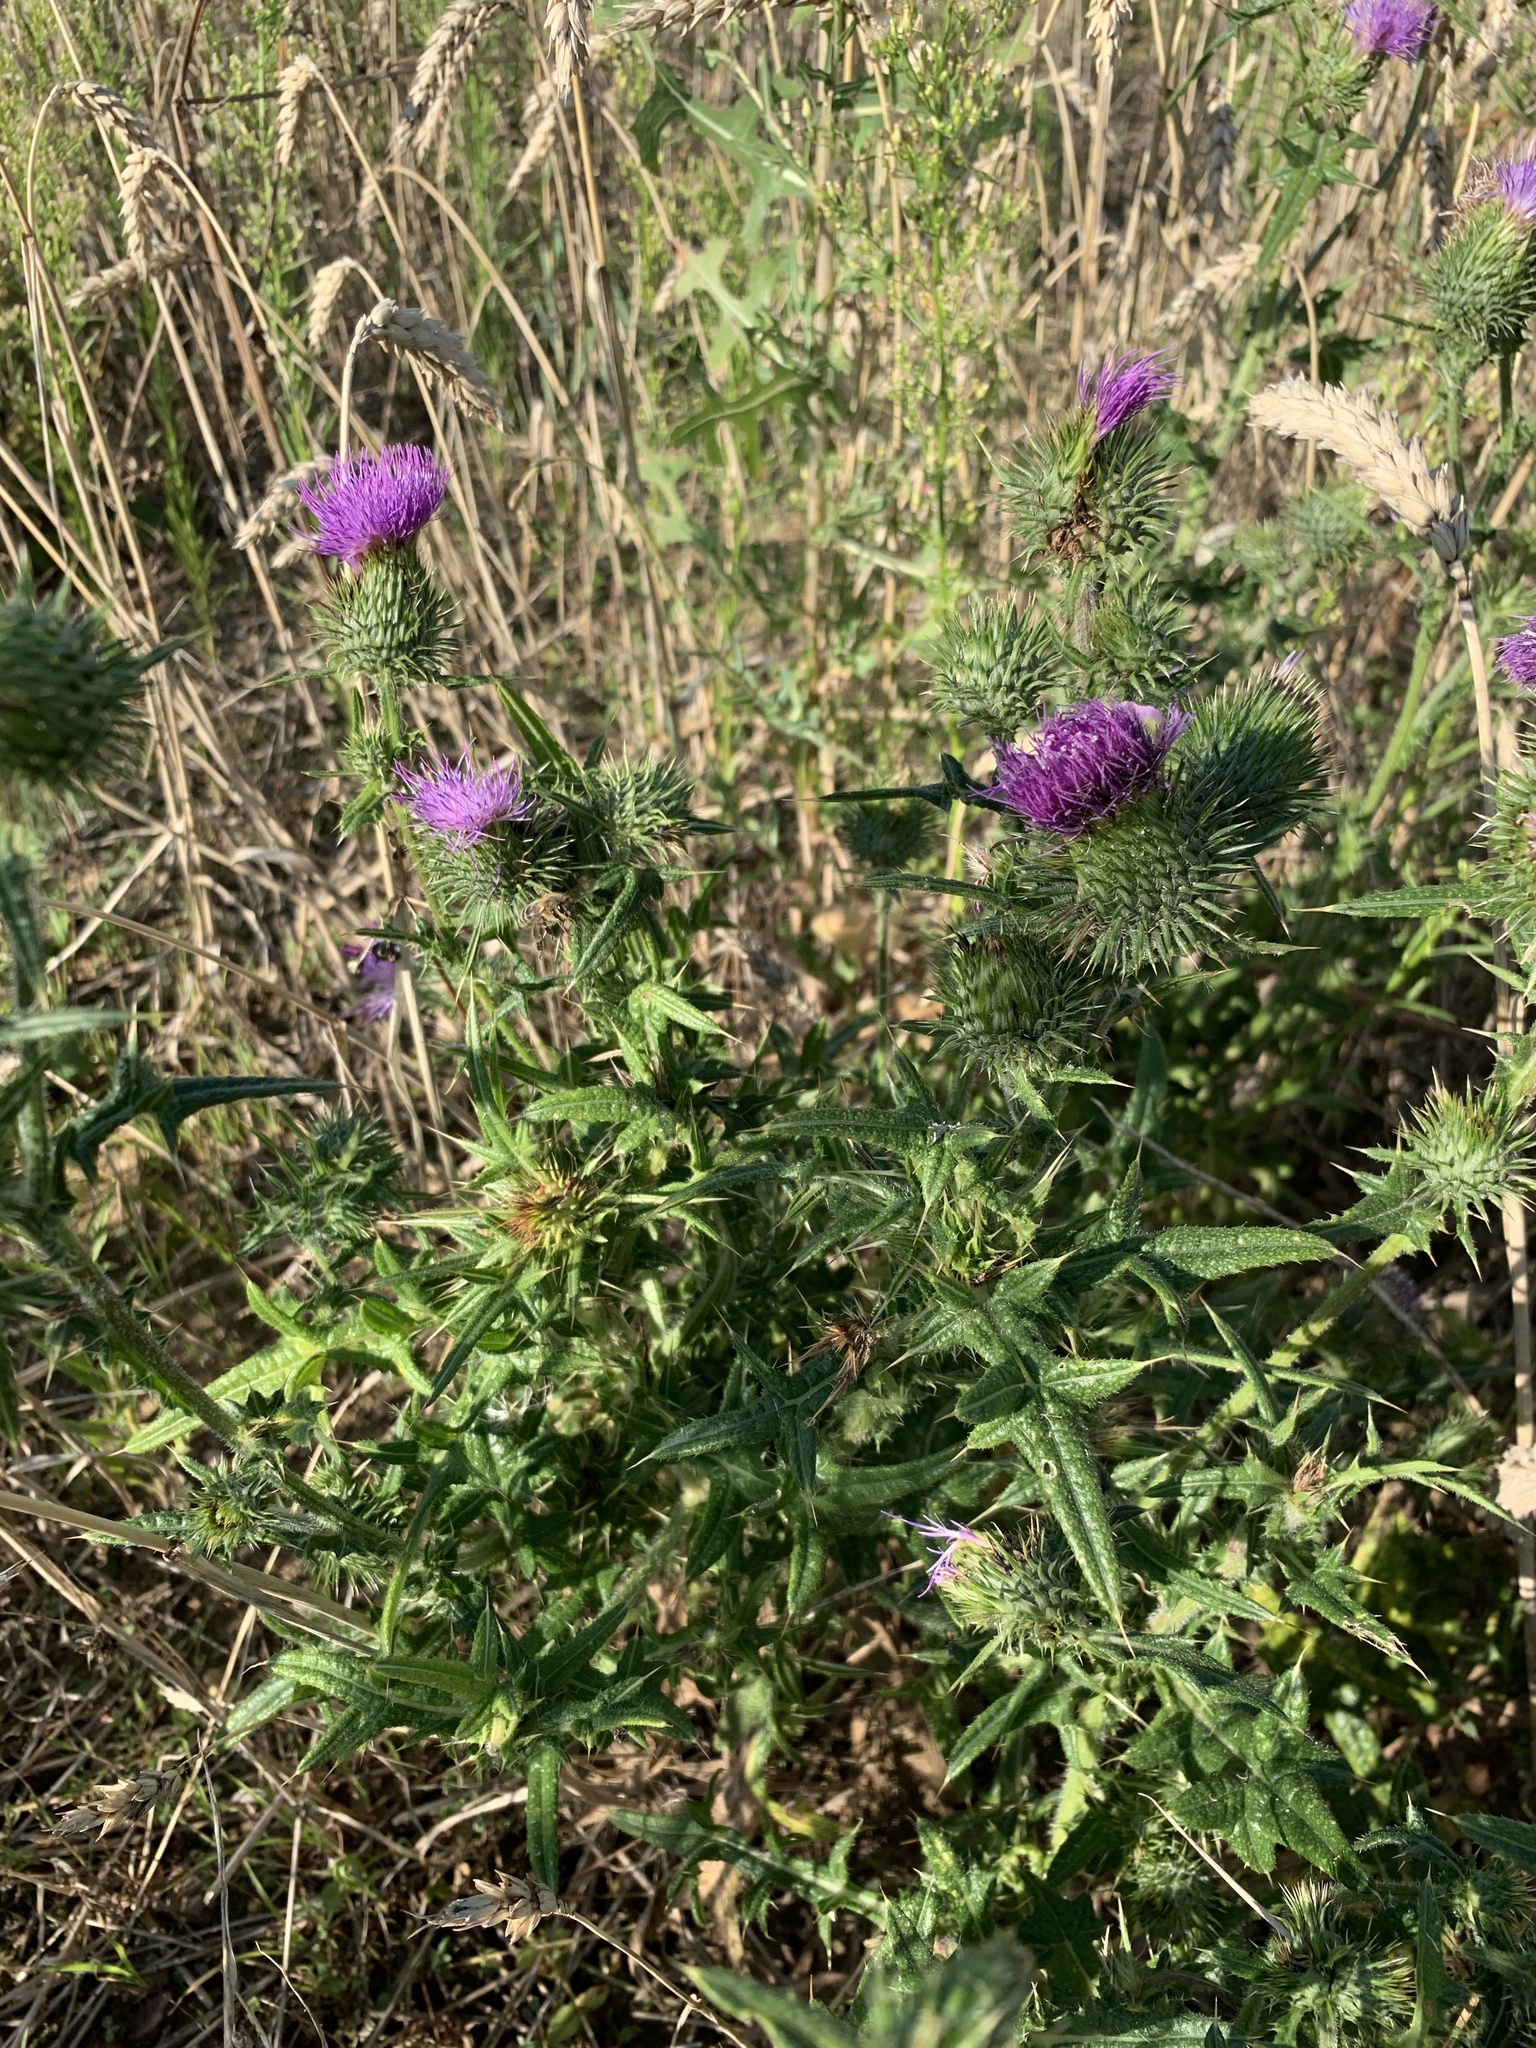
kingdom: Plantae
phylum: Tracheophyta
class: Magnoliopsida
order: Asterales
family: Asteraceae
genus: Cirsium
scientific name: Cirsium vulgare
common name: Bull thistle
